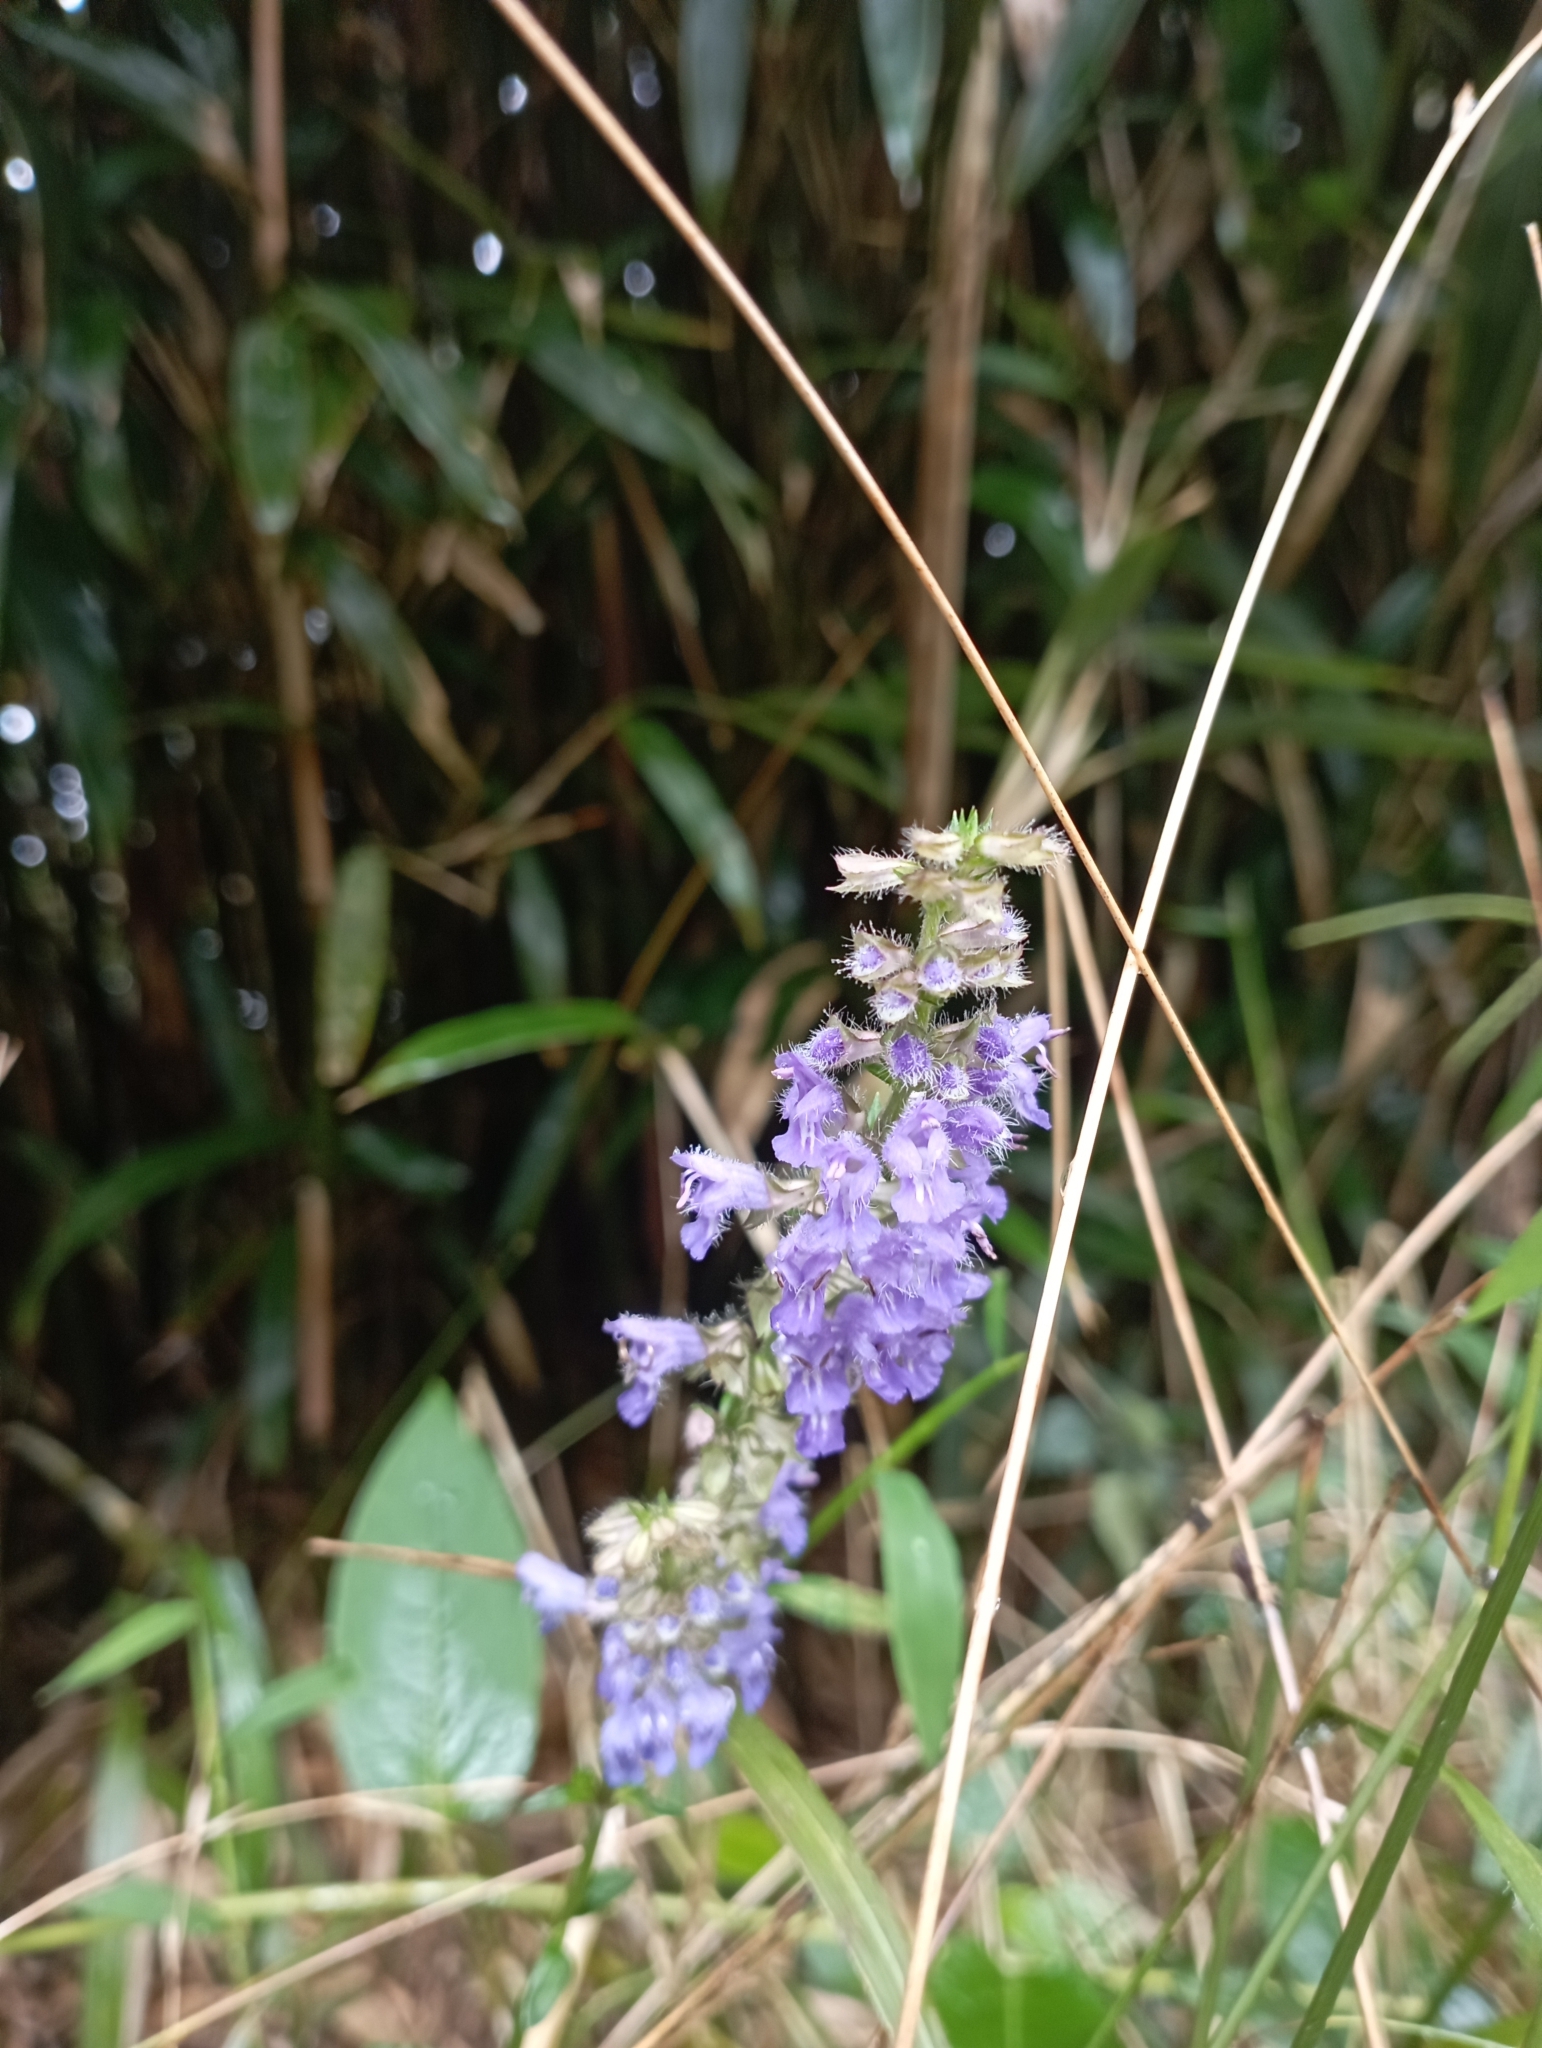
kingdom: Plantae
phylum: Tracheophyta
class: Magnoliopsida
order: Lamiales
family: Lamiaceae
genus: Salvia
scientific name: Salvia japonica
